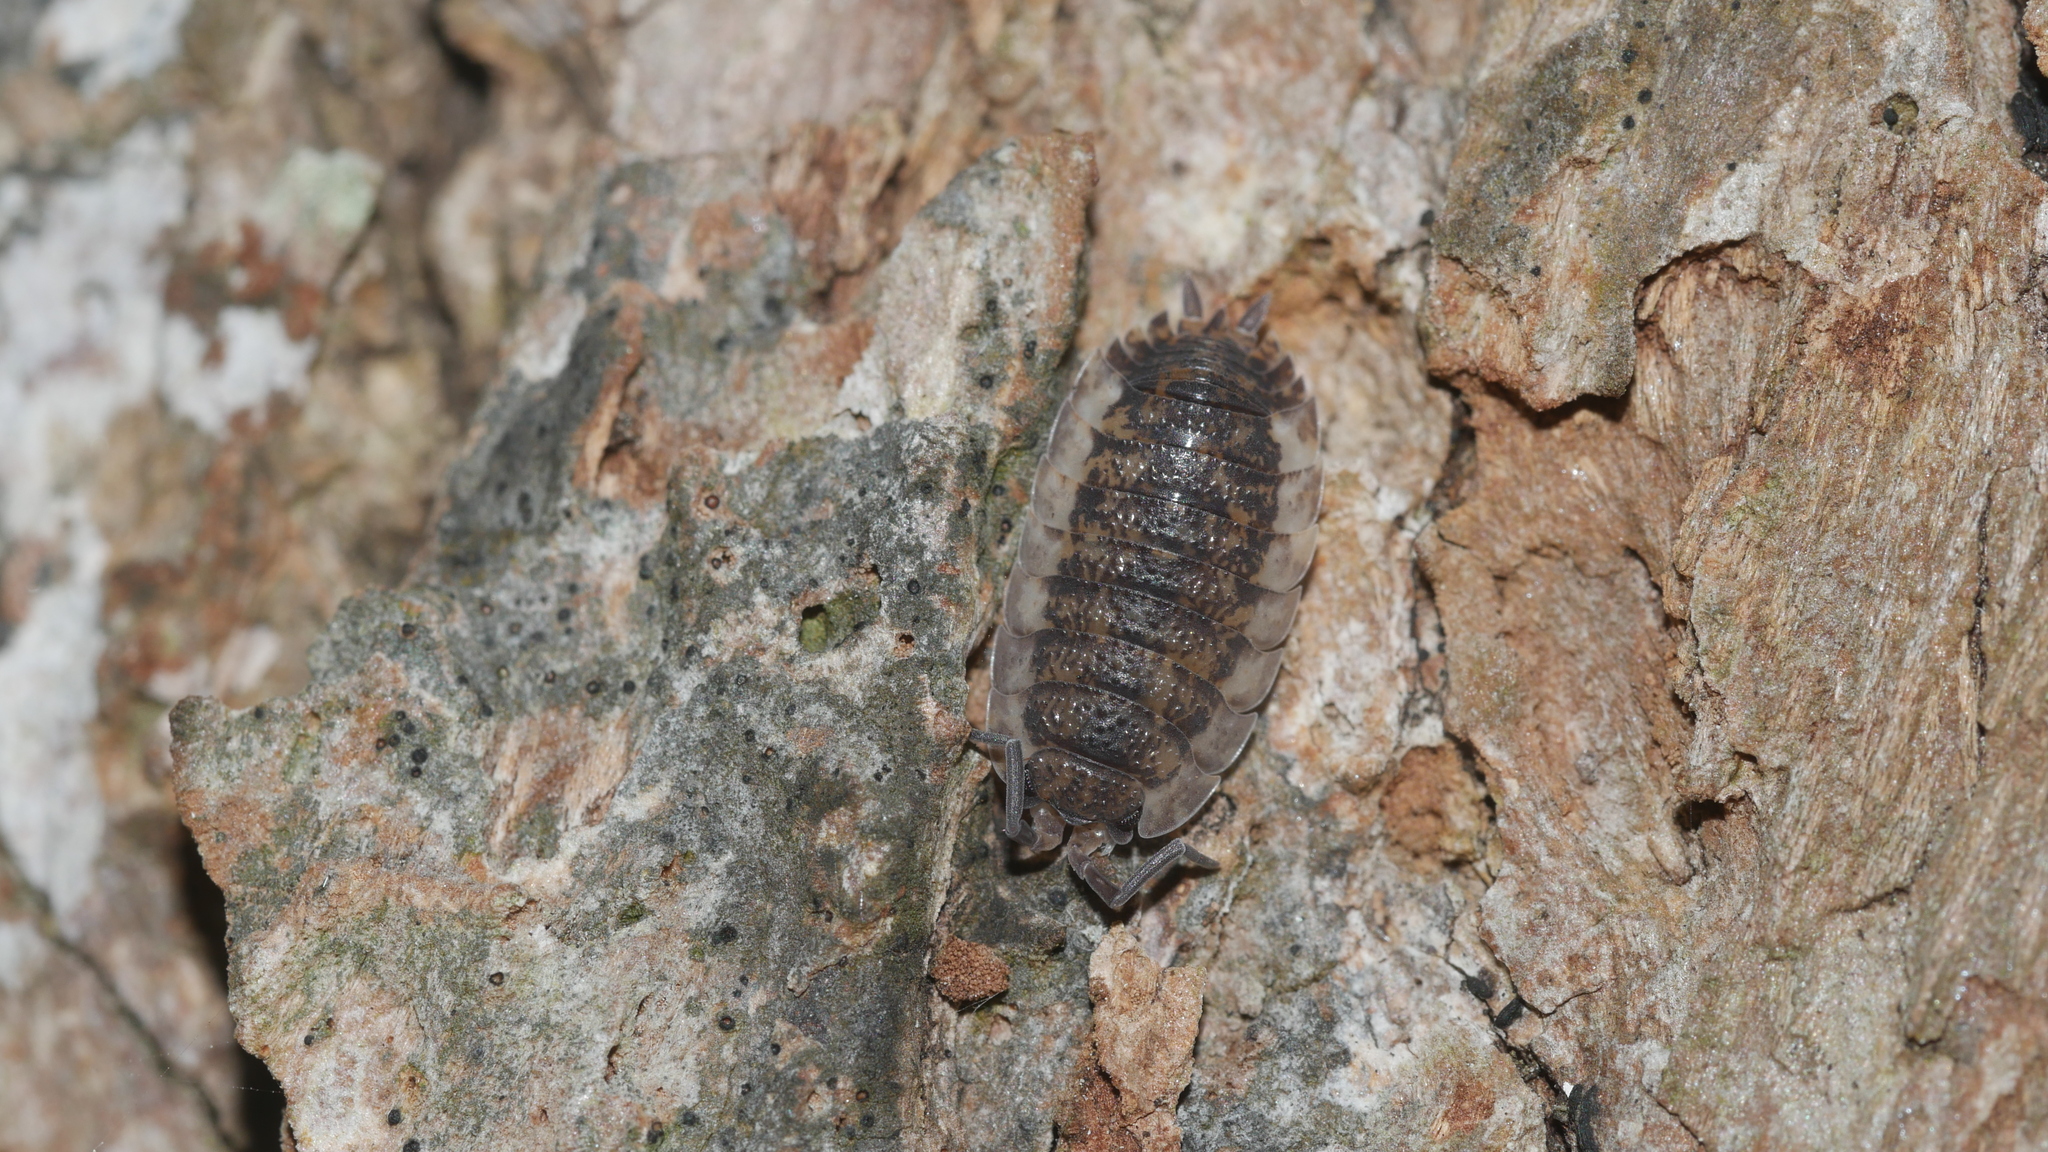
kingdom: Animalia
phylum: Arthropoda
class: Malacostraca
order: Isopoda
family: Porcellionidae
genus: Porcellio
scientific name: Porcellio scaber
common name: Common rough woodlouse
